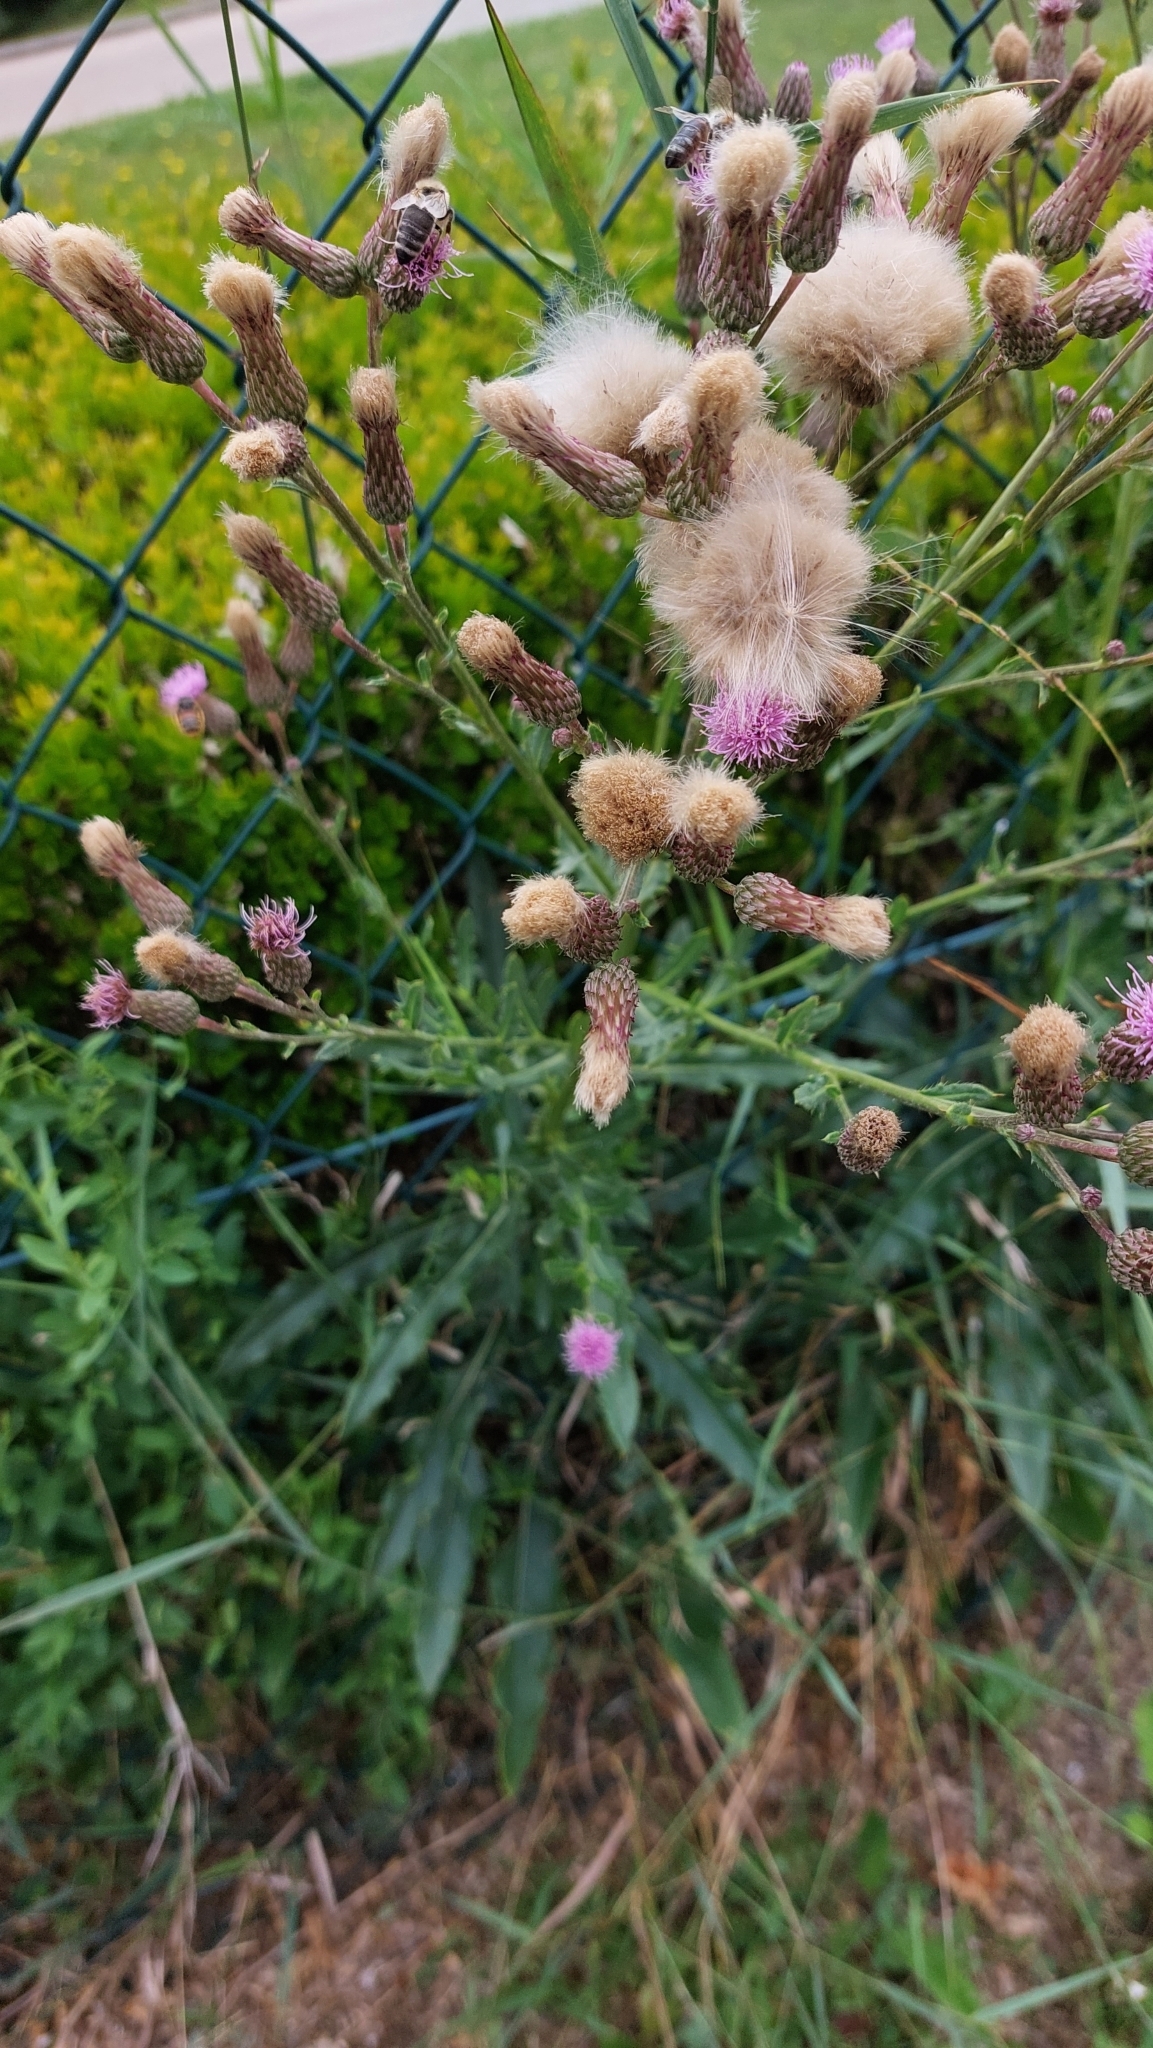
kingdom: Plantae
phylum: Tracheophyta
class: Magnoliopsida
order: Asterales
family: Asteraceae
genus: Cirsium
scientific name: Cirsium arvense
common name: Creeping thistle
